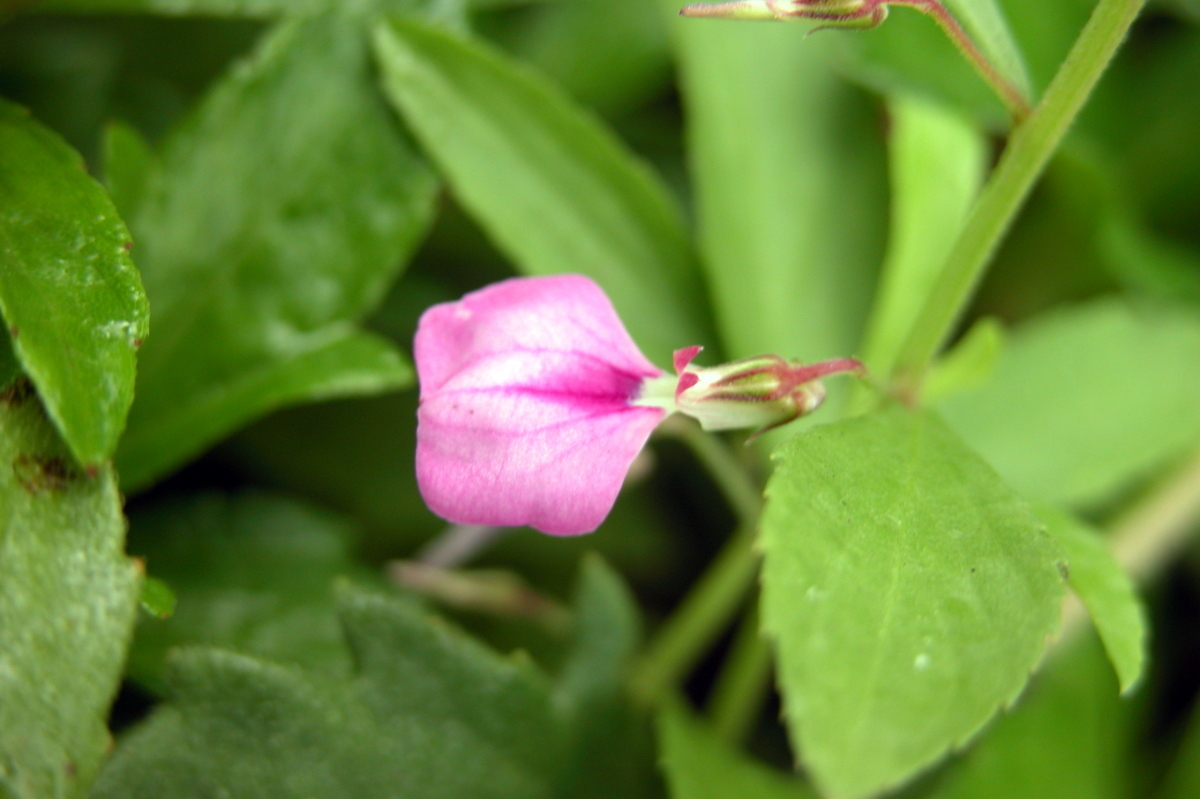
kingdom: Plantae
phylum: Tracheophyta
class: Magnoliopsida
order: Malpighiales
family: Violaceae
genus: Pigea
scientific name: Pigea enneasperma
